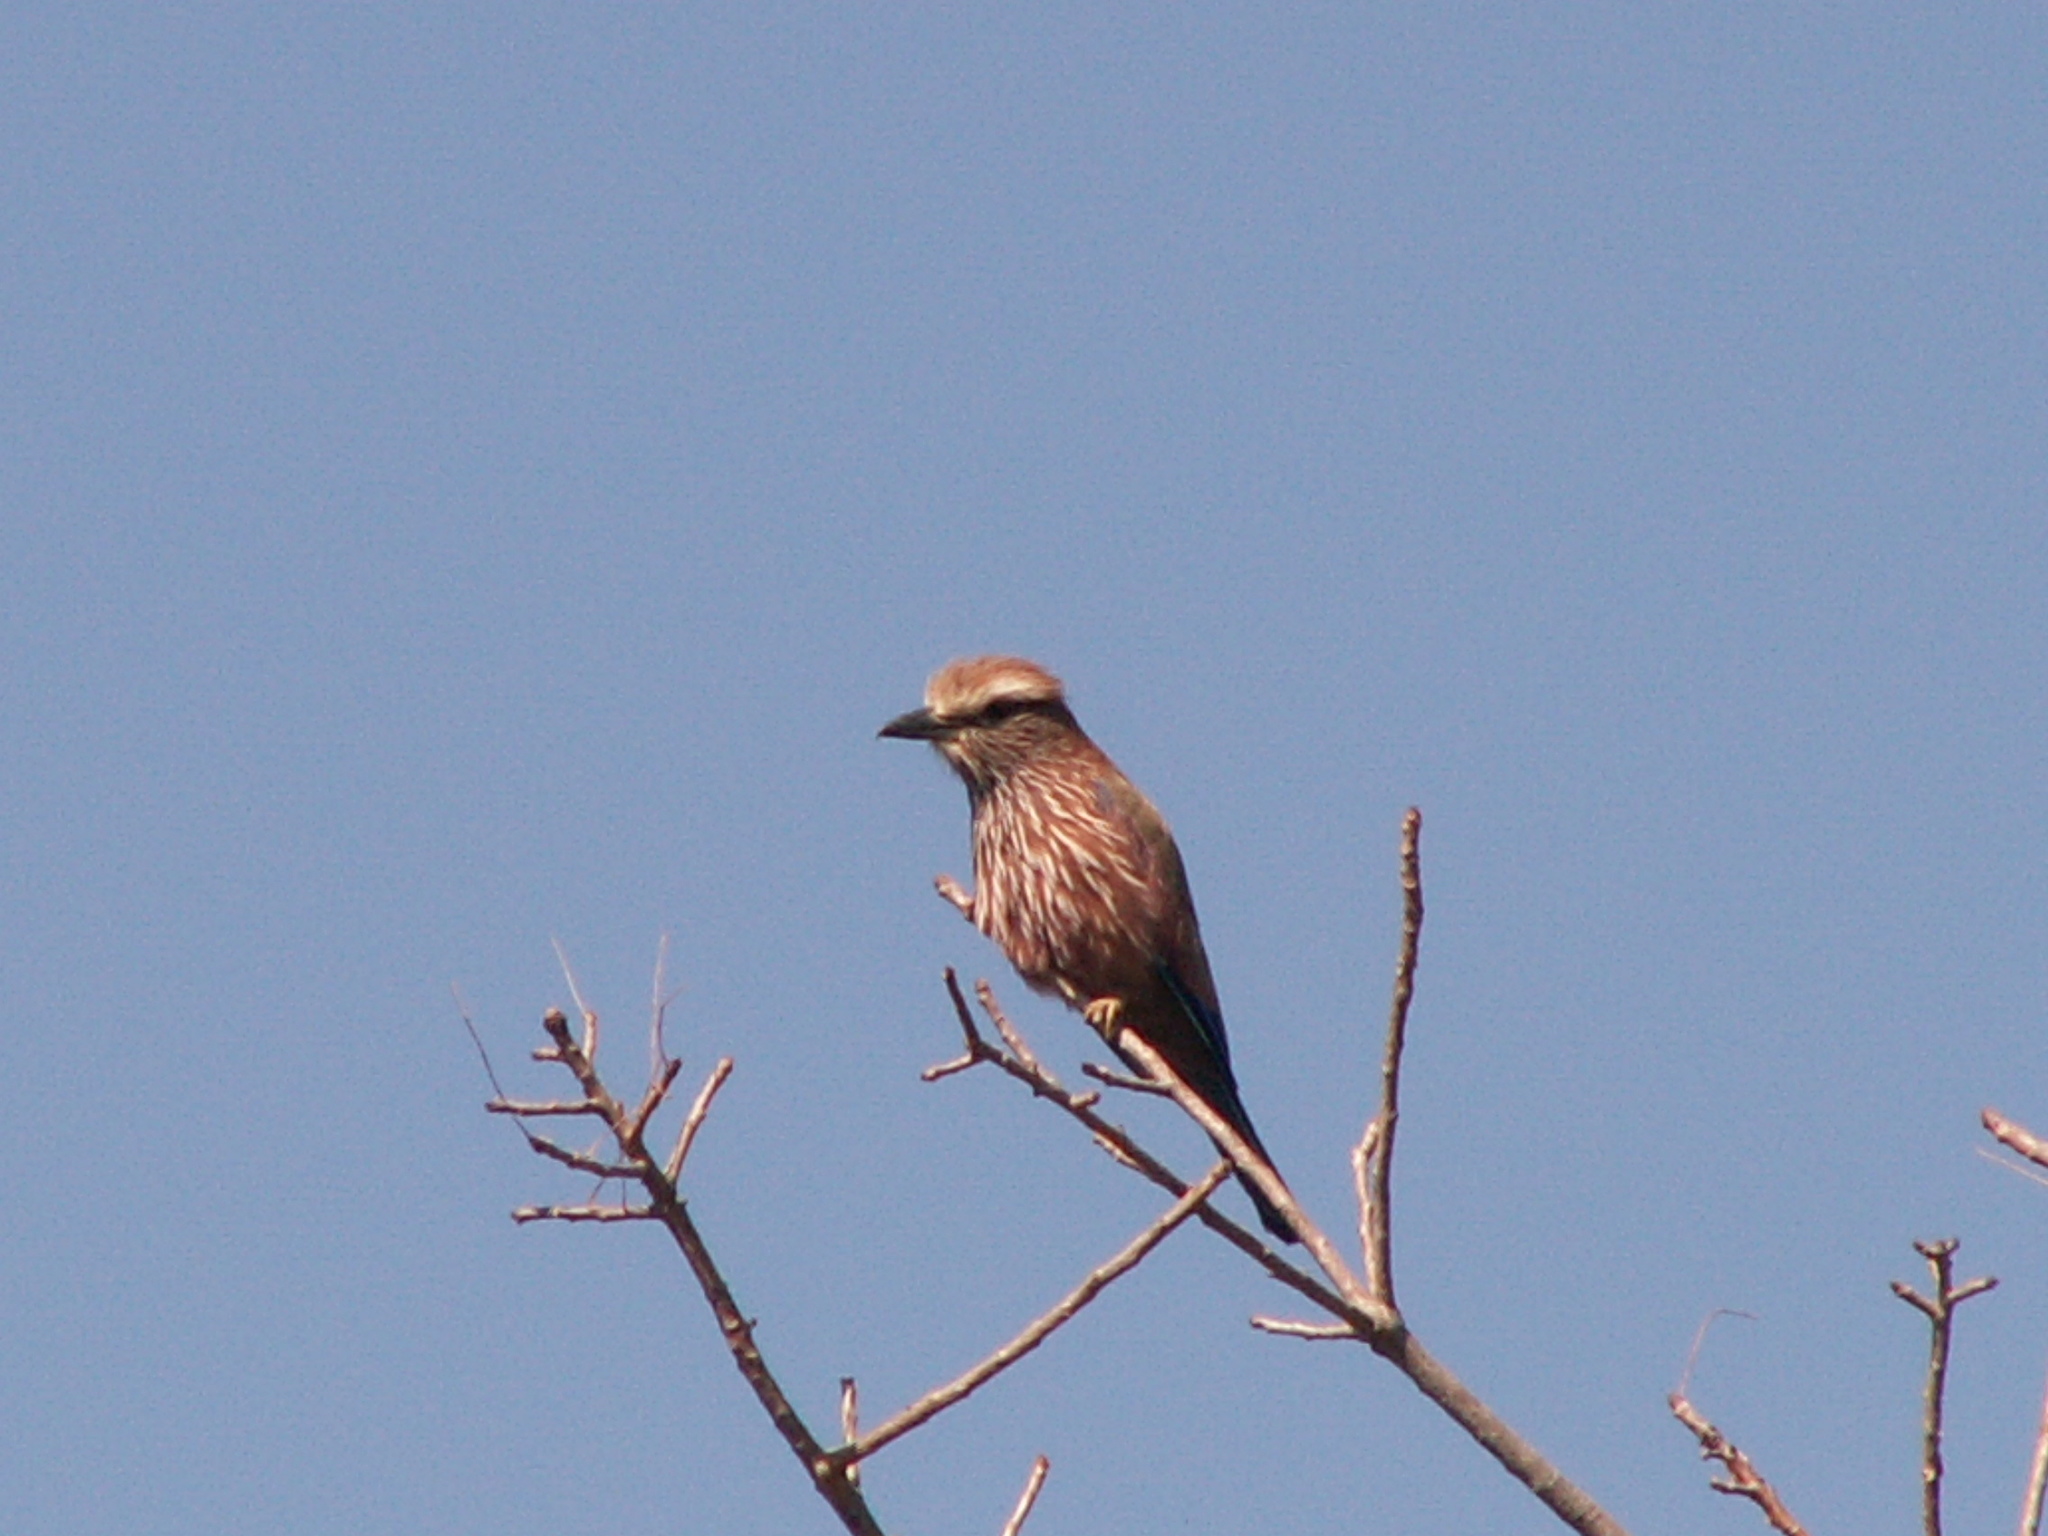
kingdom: Animalia
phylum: Chordata
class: Aves
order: Coraciiformes
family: Coraciidae
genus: Coracias
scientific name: Coracias naevius
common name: Purple roller
